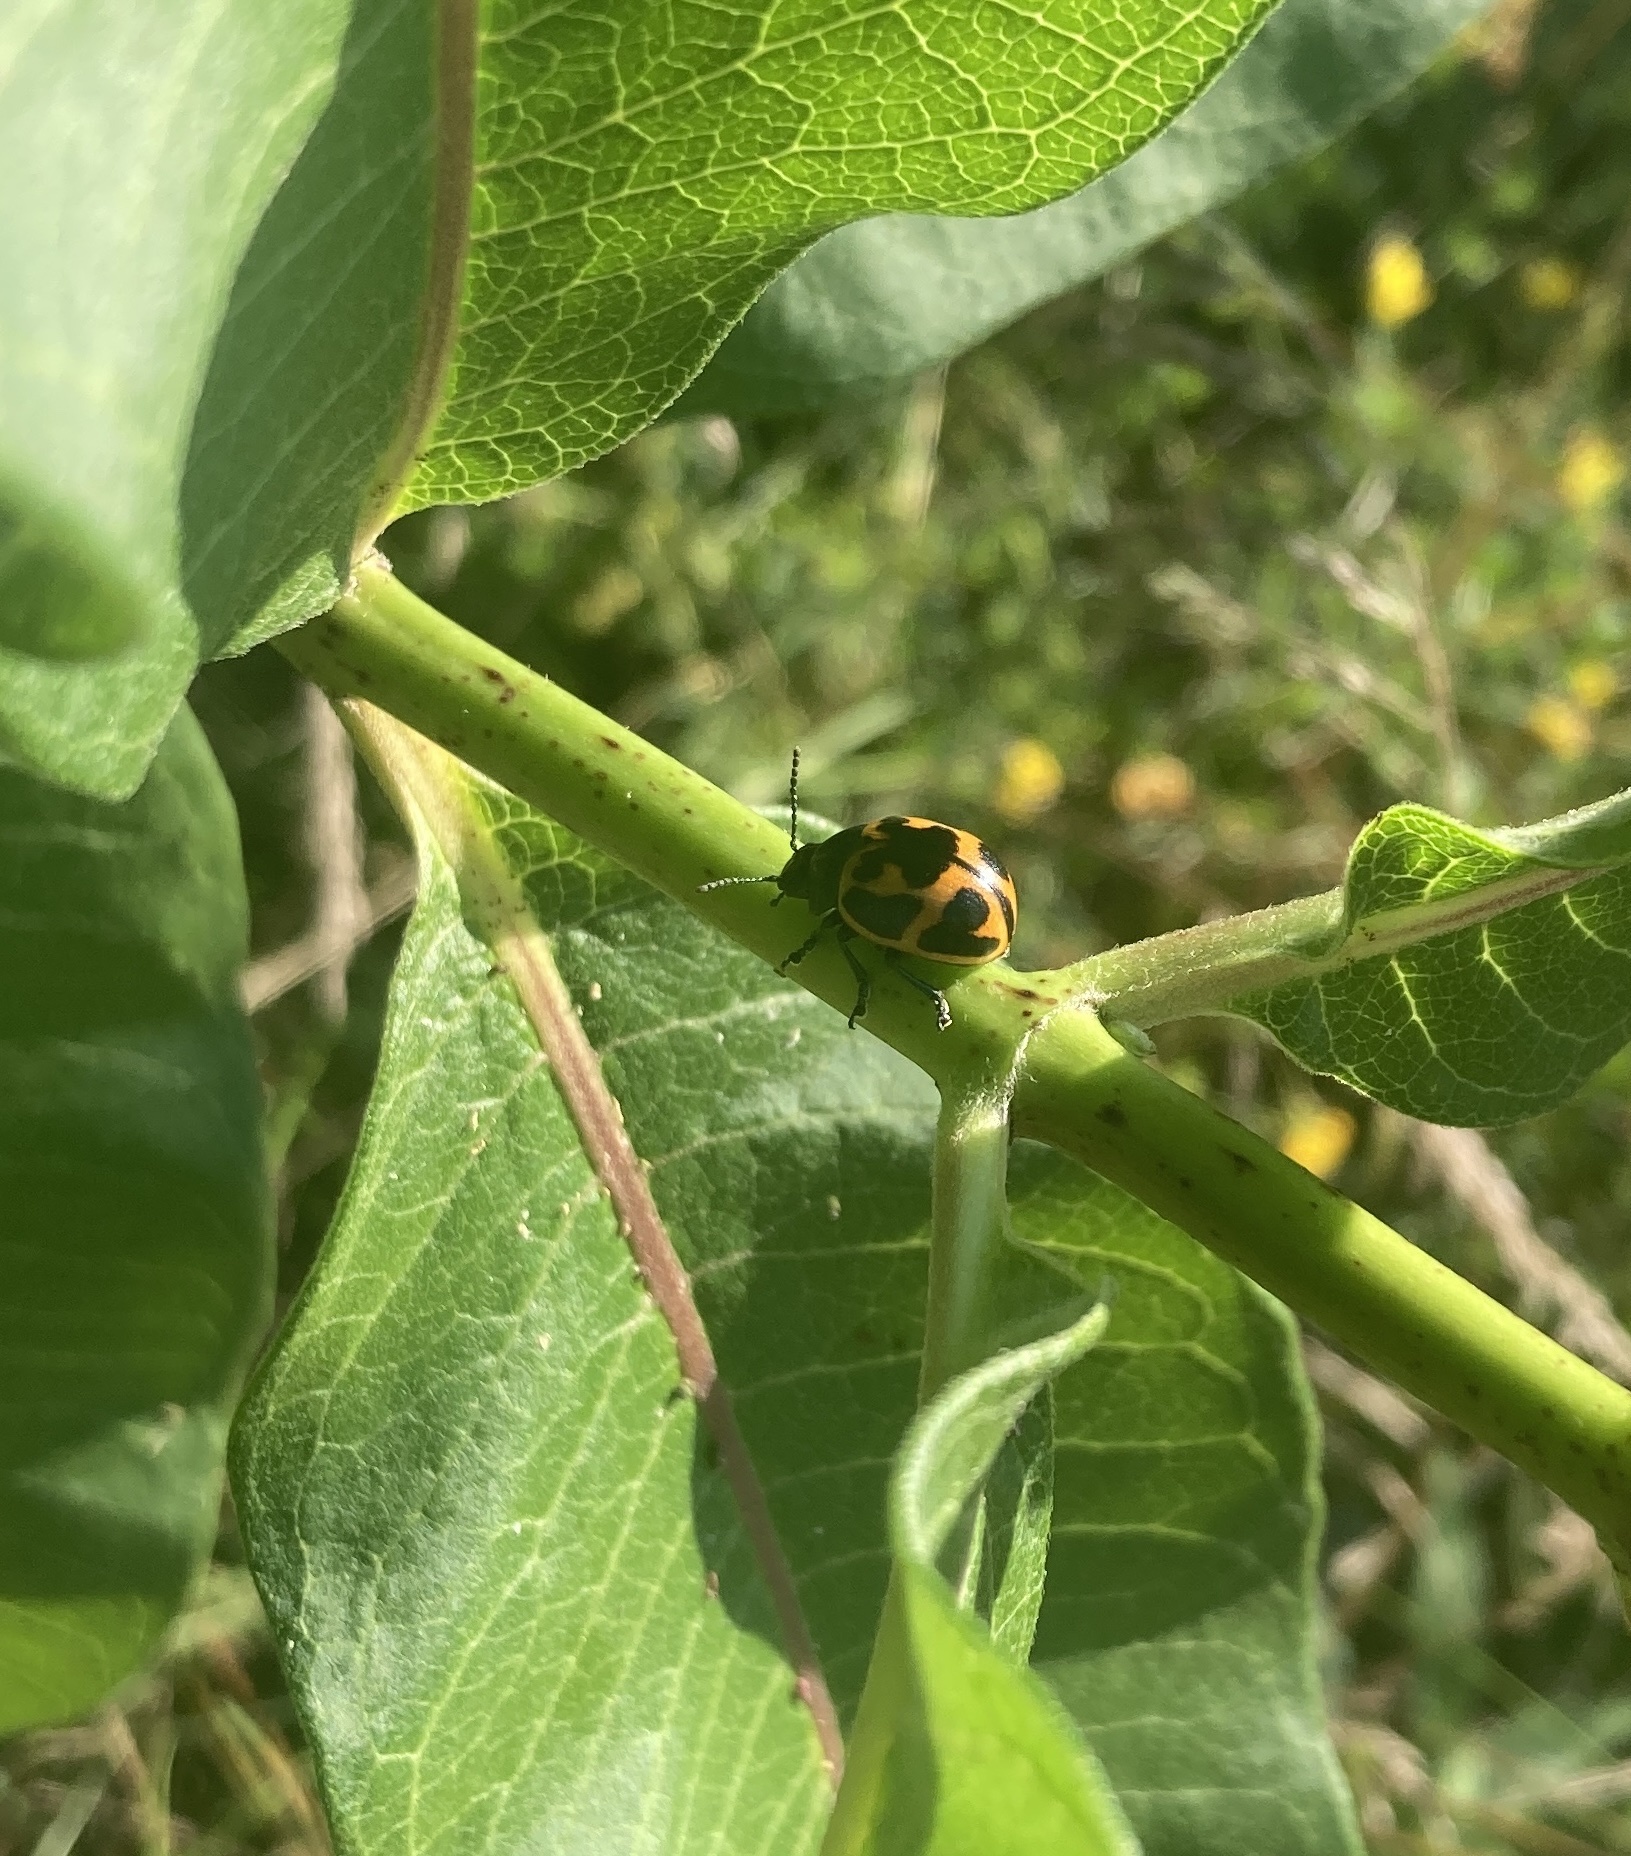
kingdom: Animalia
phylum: Arthropoda
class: Insecta
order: Coleoptera
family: Chrysomelidae
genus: Labidomera
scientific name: Labidomera clivicollis
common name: Swamp milkweed leaf beetle
